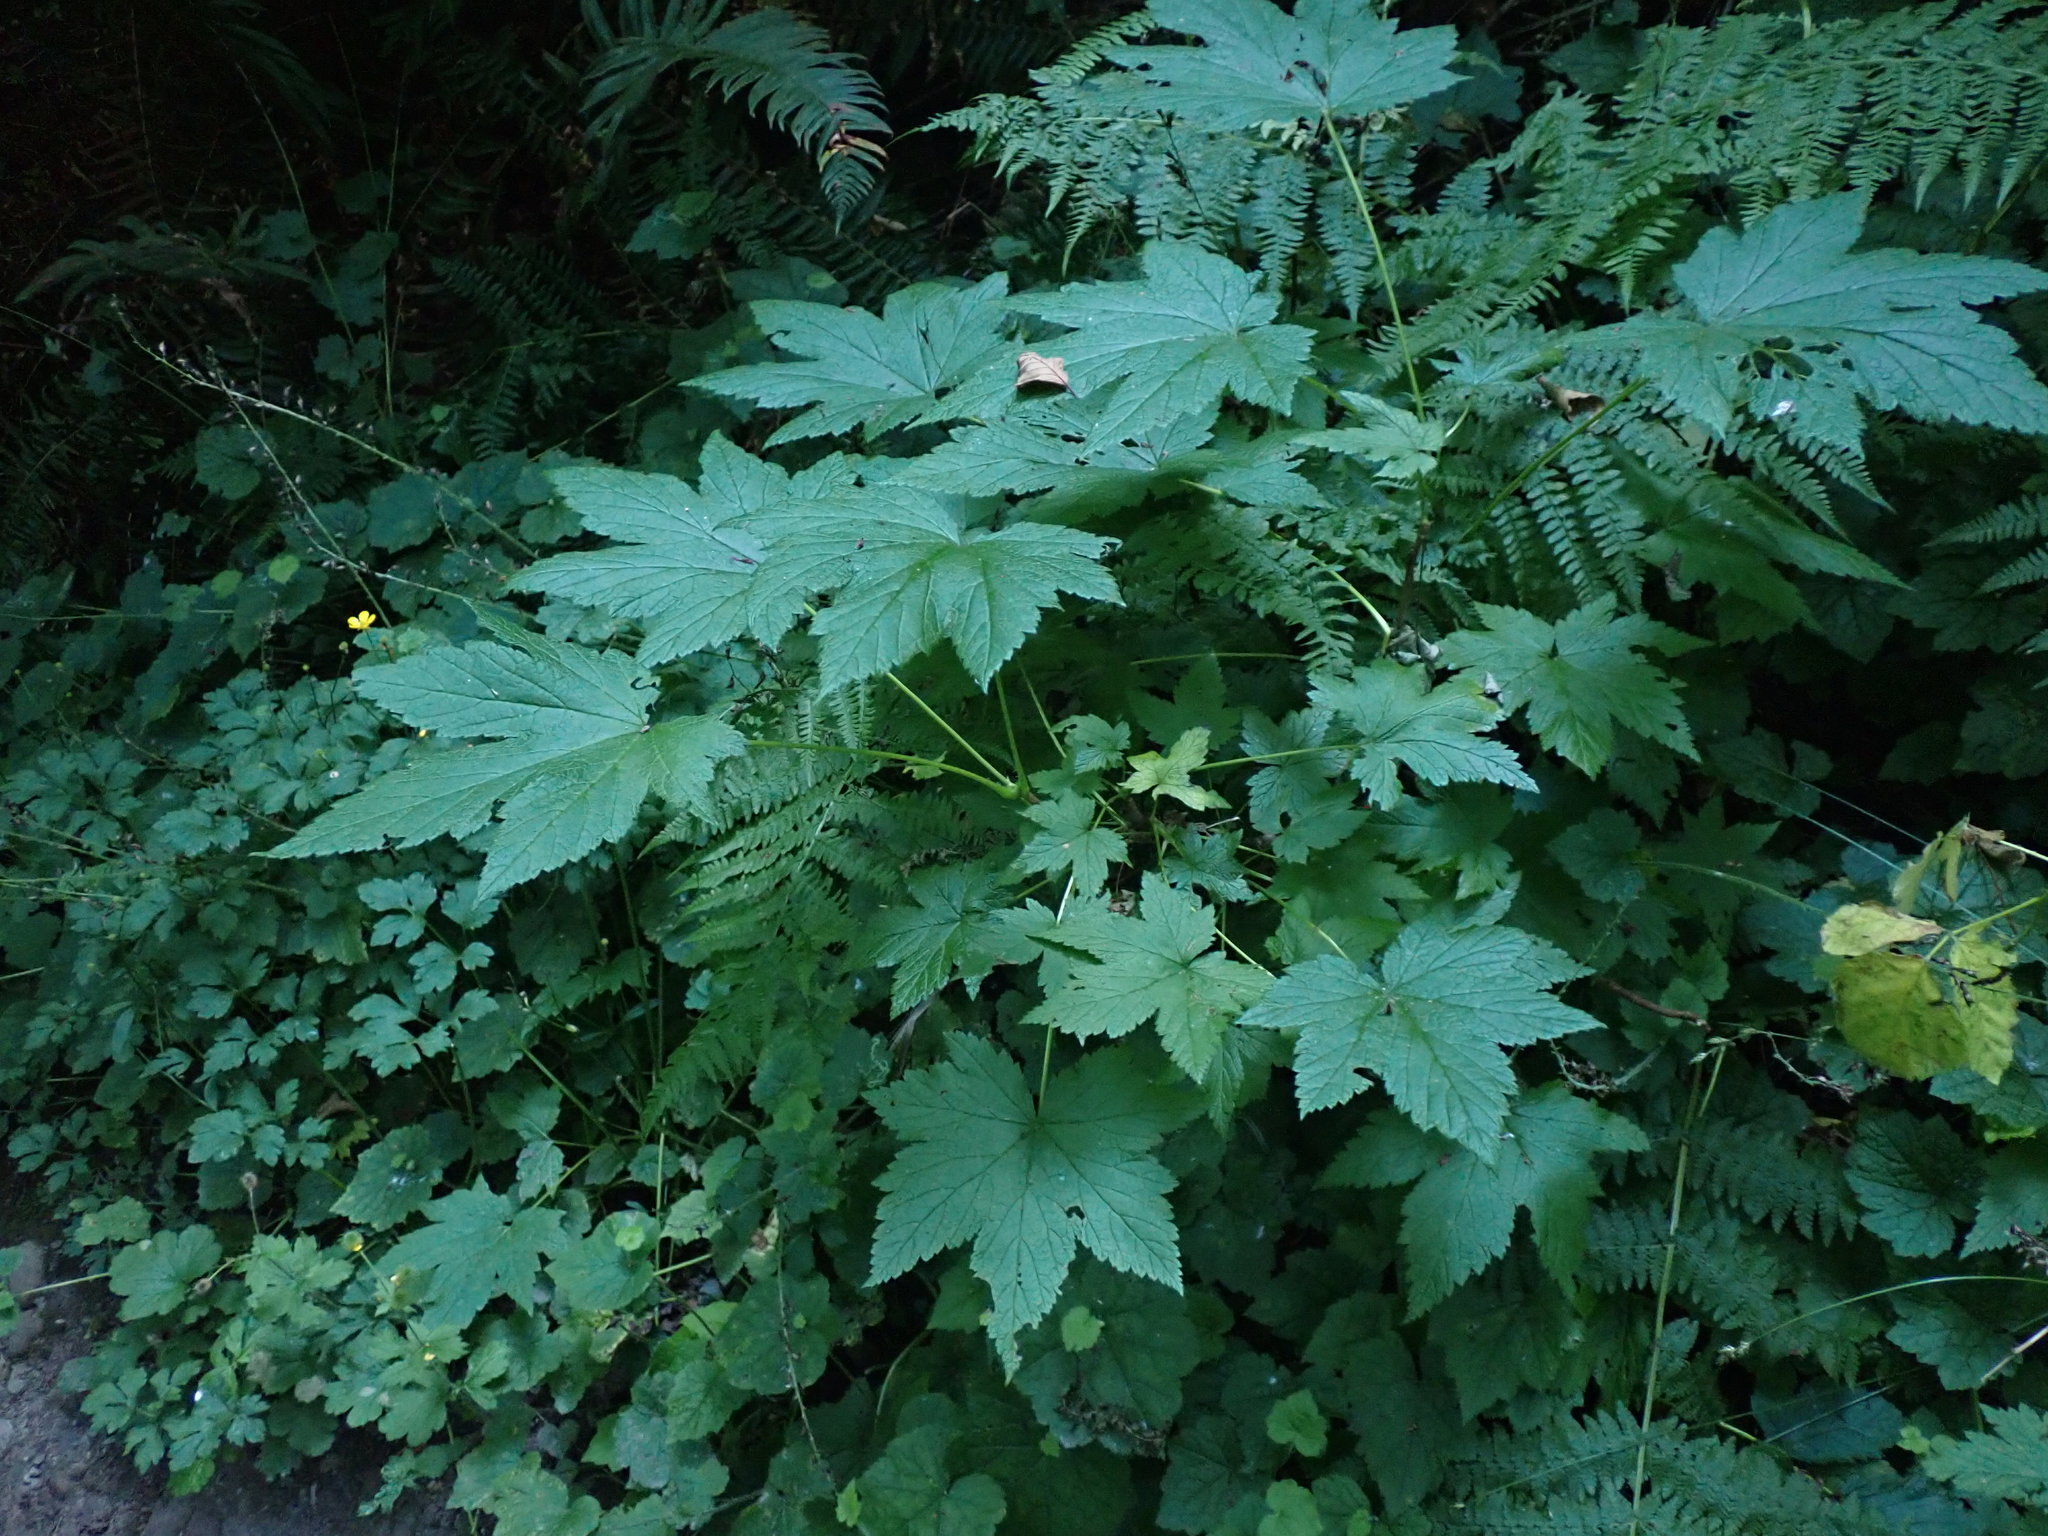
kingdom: Plantae
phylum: Tracheophyta
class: Magnoliopsida
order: Saxifragales
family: Grossulariaceae
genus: Ribes
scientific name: Ribes bracteosum
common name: California black currant
